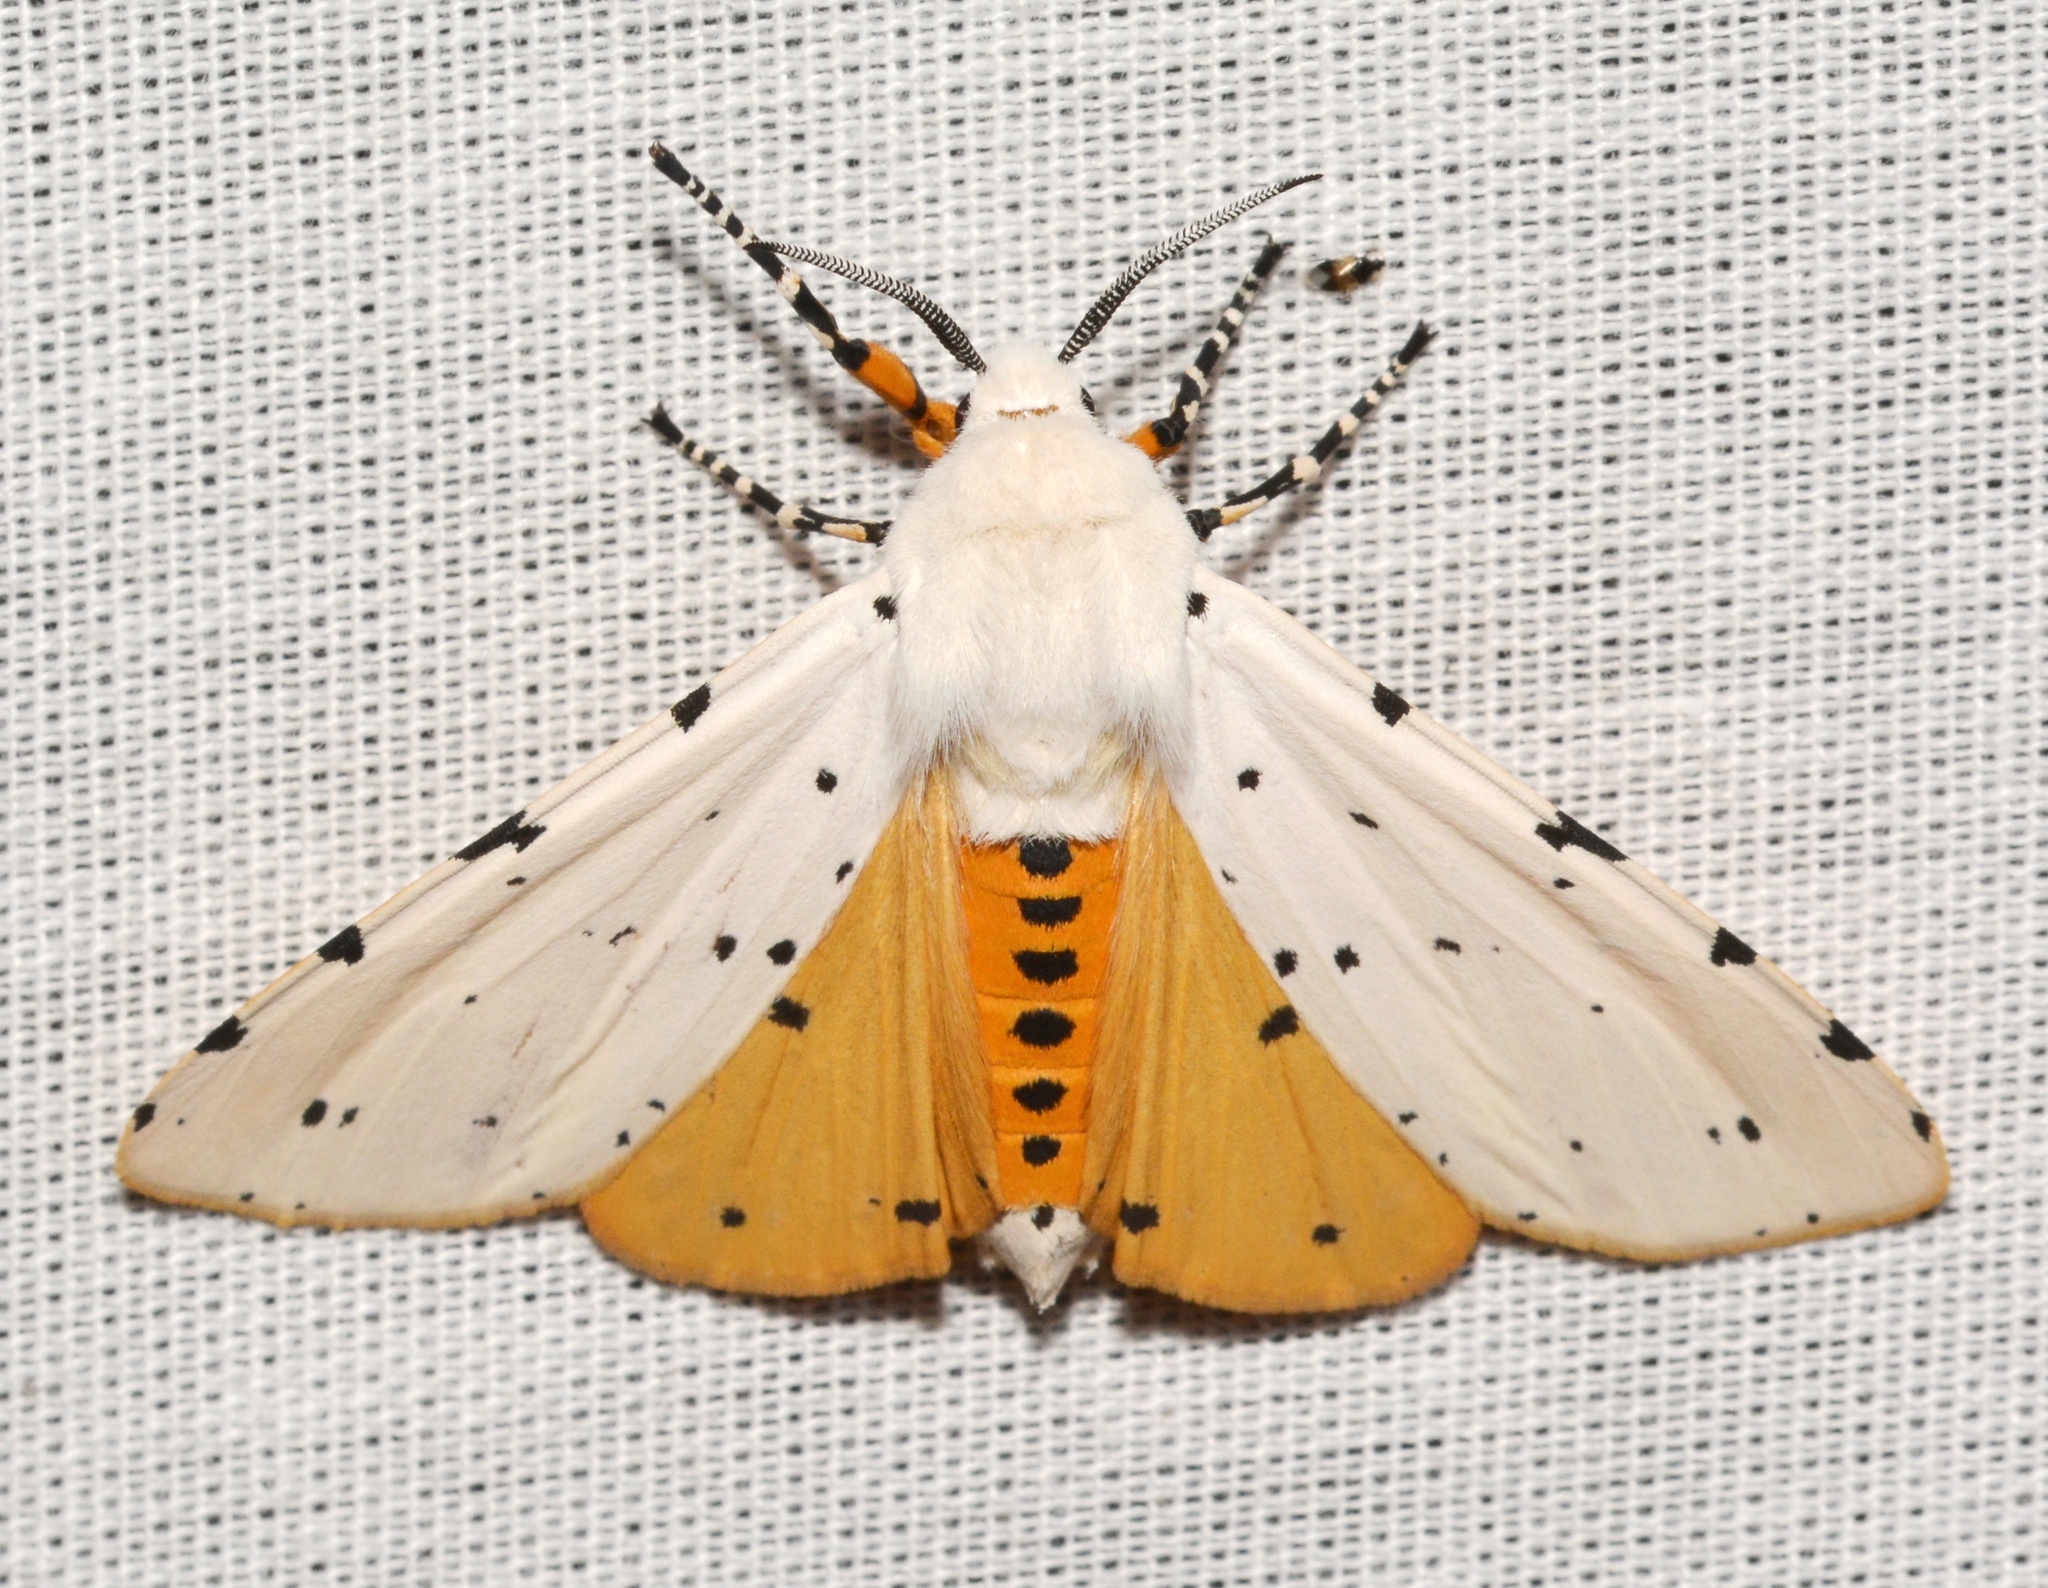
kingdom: Animalia
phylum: Arthropoda
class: Insecta
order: Lepidoptera
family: Erebidae
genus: Estigmene
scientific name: Estigmene acrea
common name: Salt marsh moth
